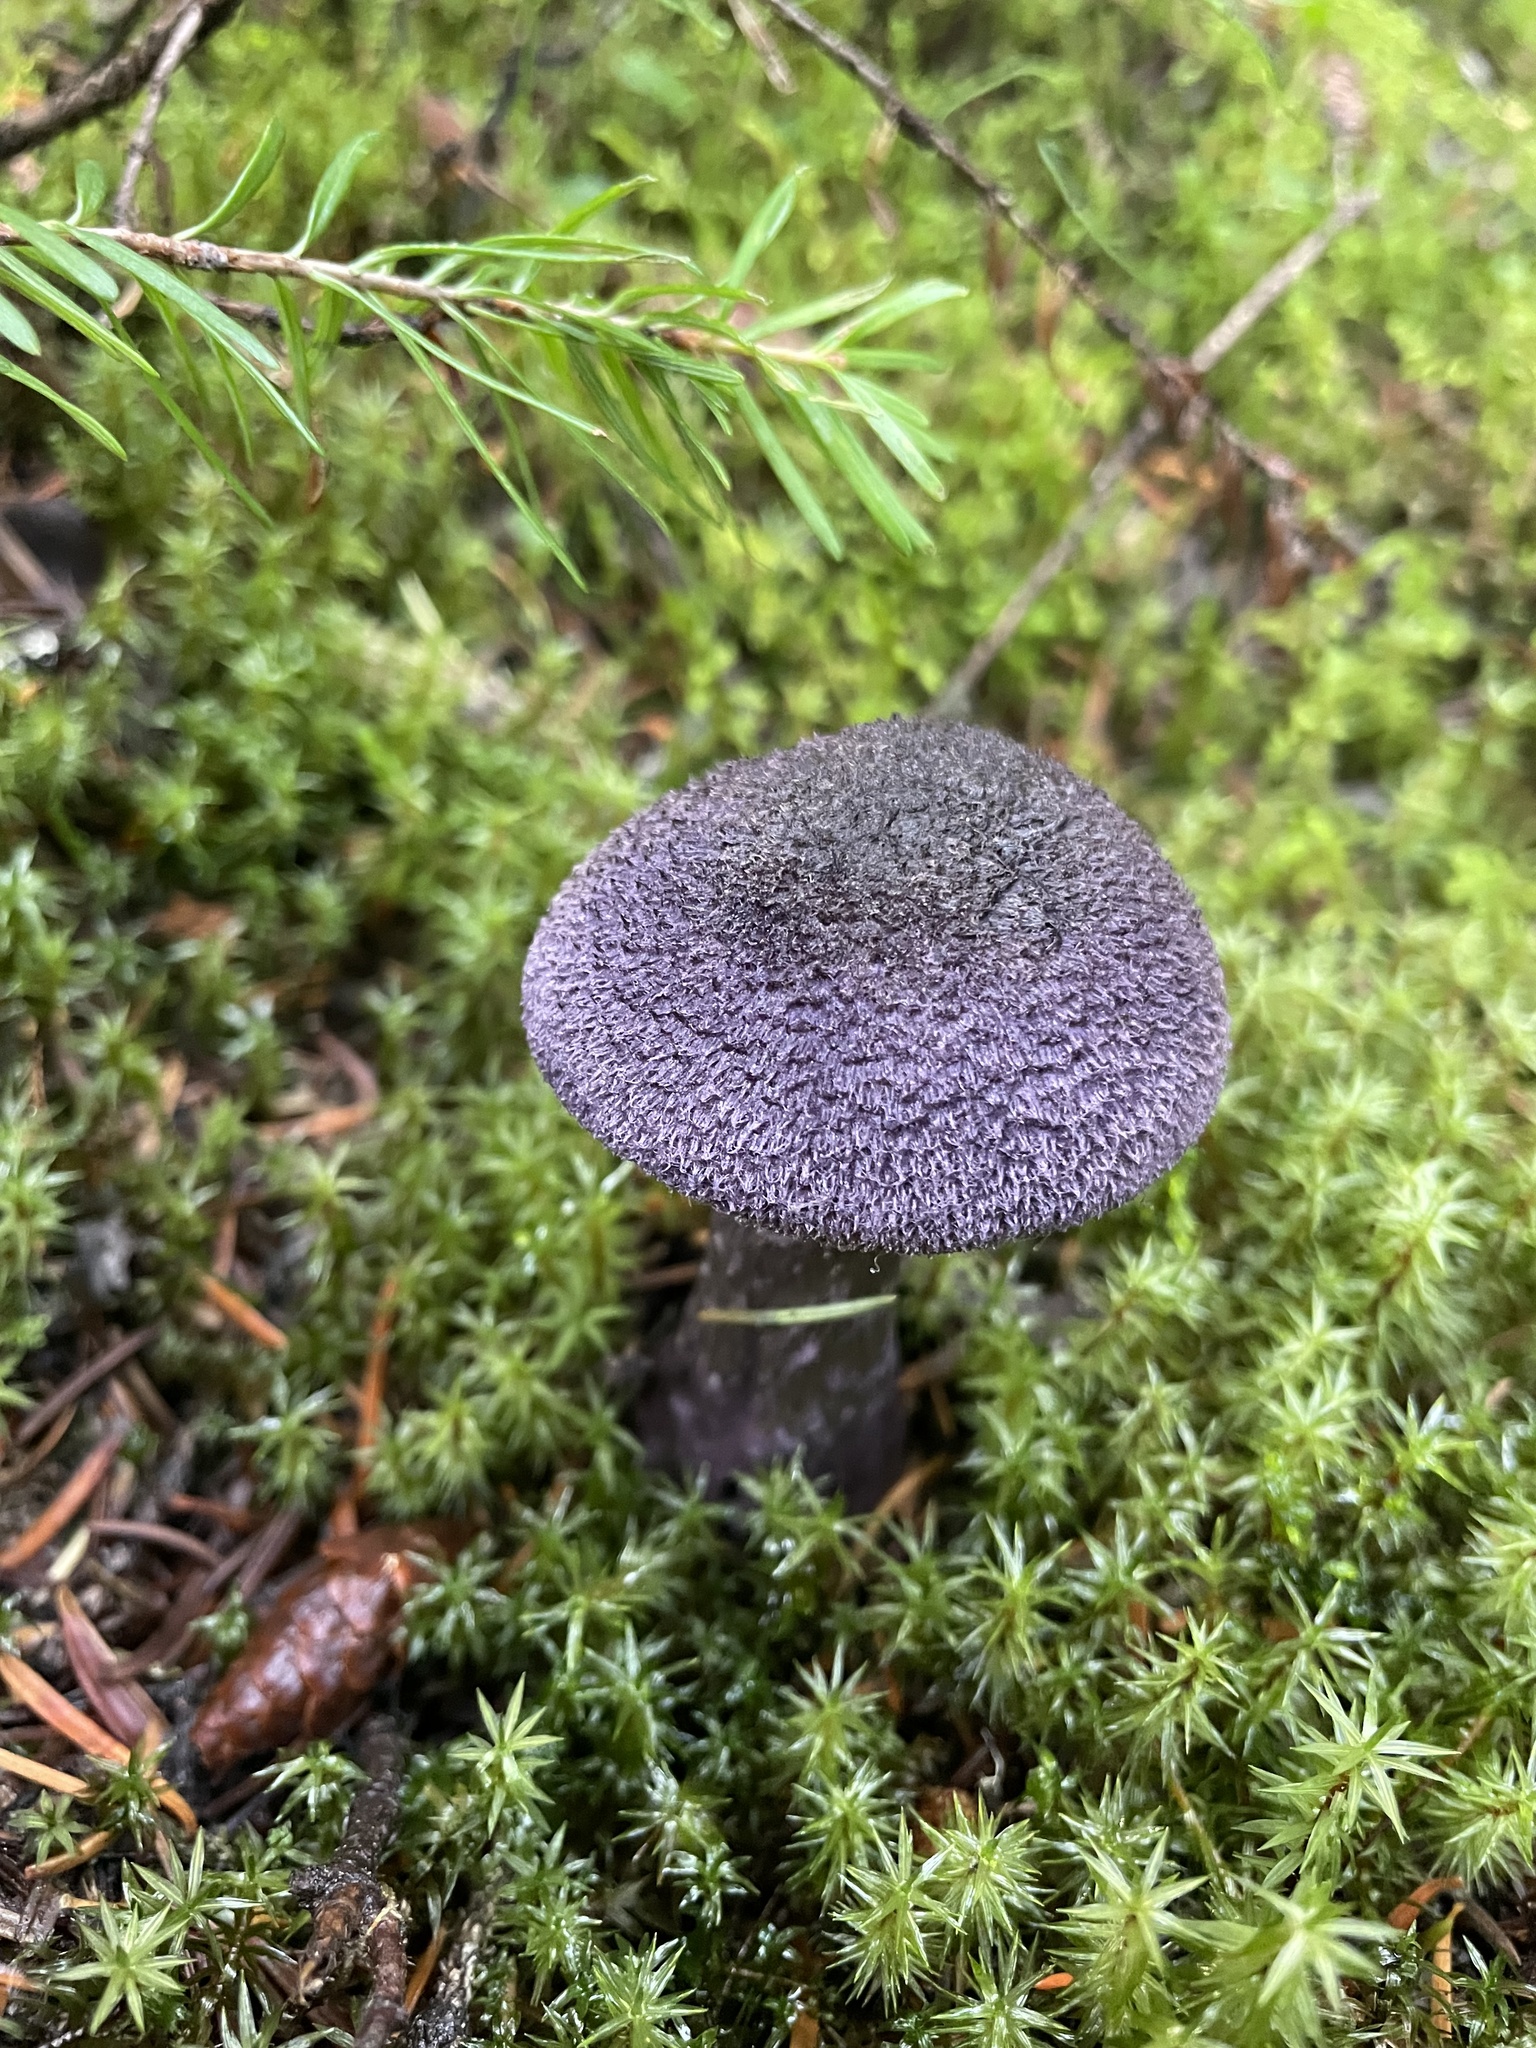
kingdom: Fungi
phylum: Basidiomycota
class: Agaricomycetes
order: Agaricales
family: Cortinariaceae
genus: Cortinarius
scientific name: Cortinarius violaceus
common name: Violet webcap
